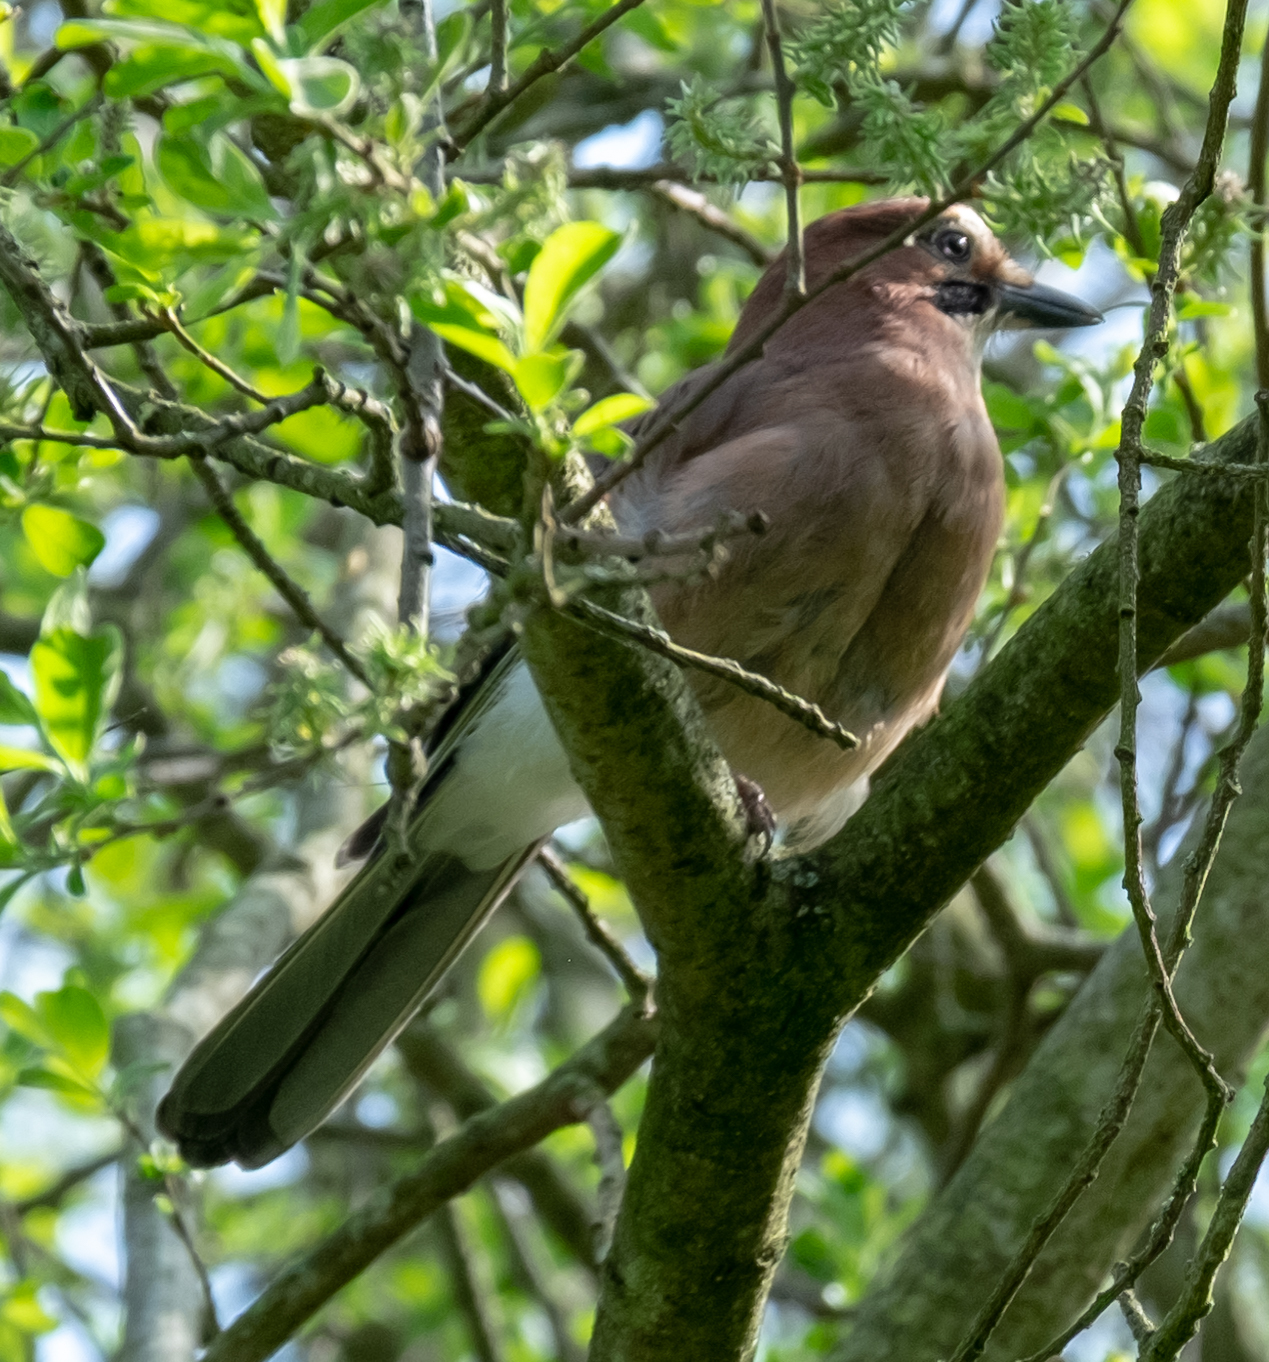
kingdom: Animalia
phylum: Chordata
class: Aves
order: Passeriformes
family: Corvidae
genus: Garrulus
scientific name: Garrulus glandarius
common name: Eurasian jay
